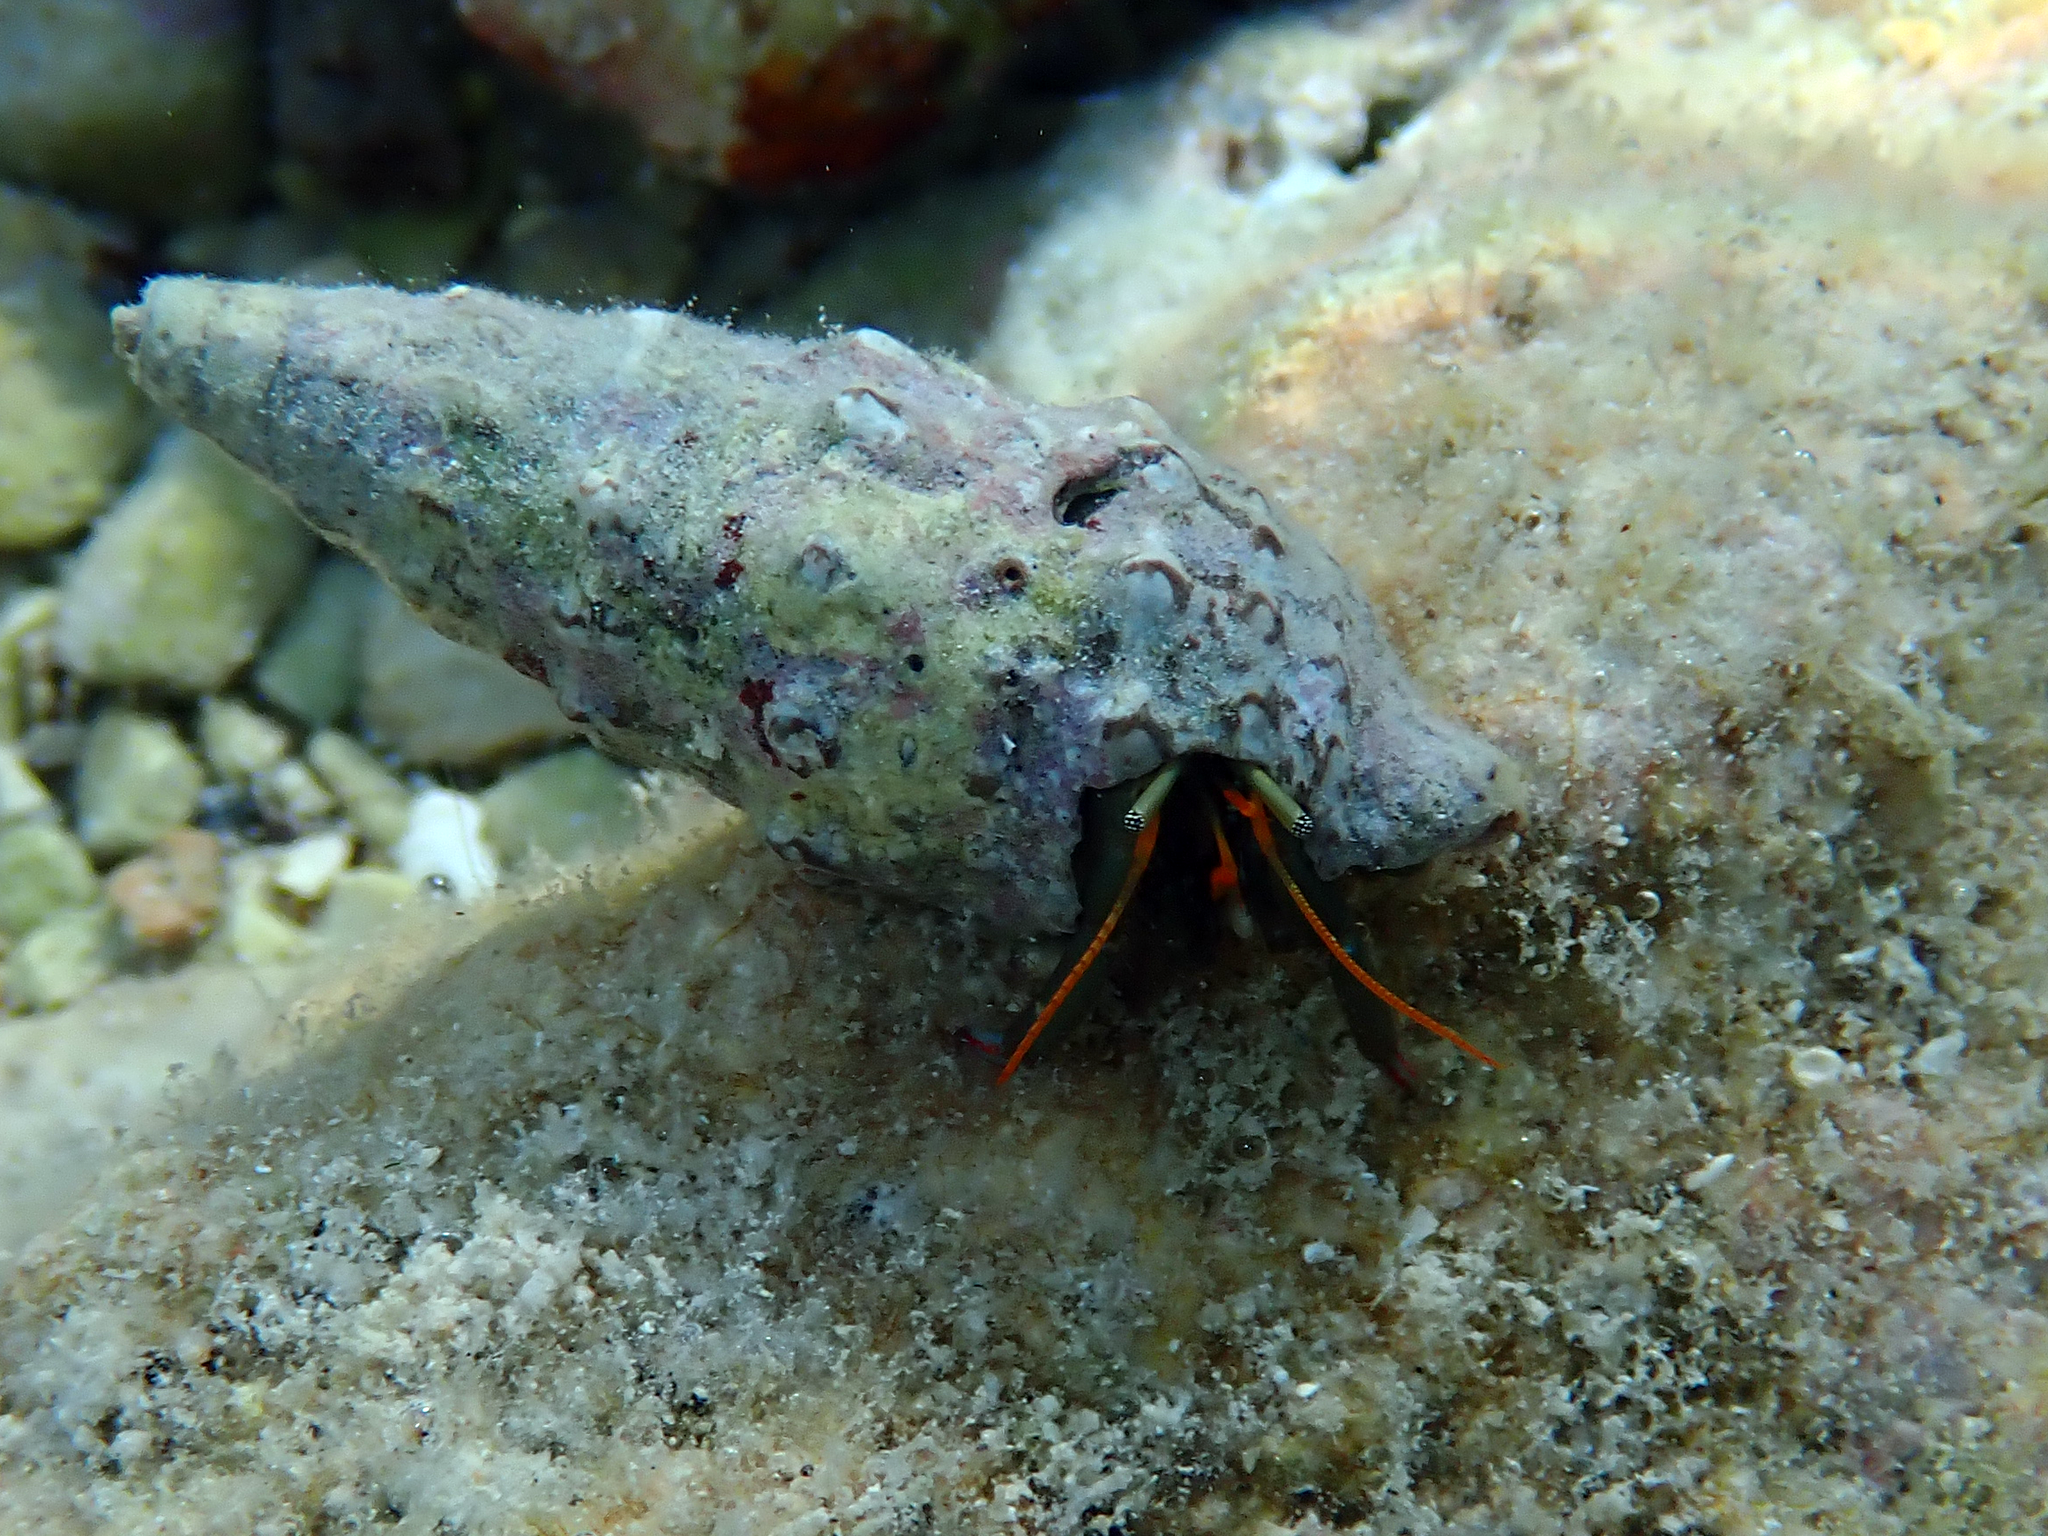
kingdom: Animalia
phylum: Arthropoda
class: Malacostraca
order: Decapoda
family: Diogenidae
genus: Clibanarius
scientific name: Clibanarius erythropus
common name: Hermit crab
